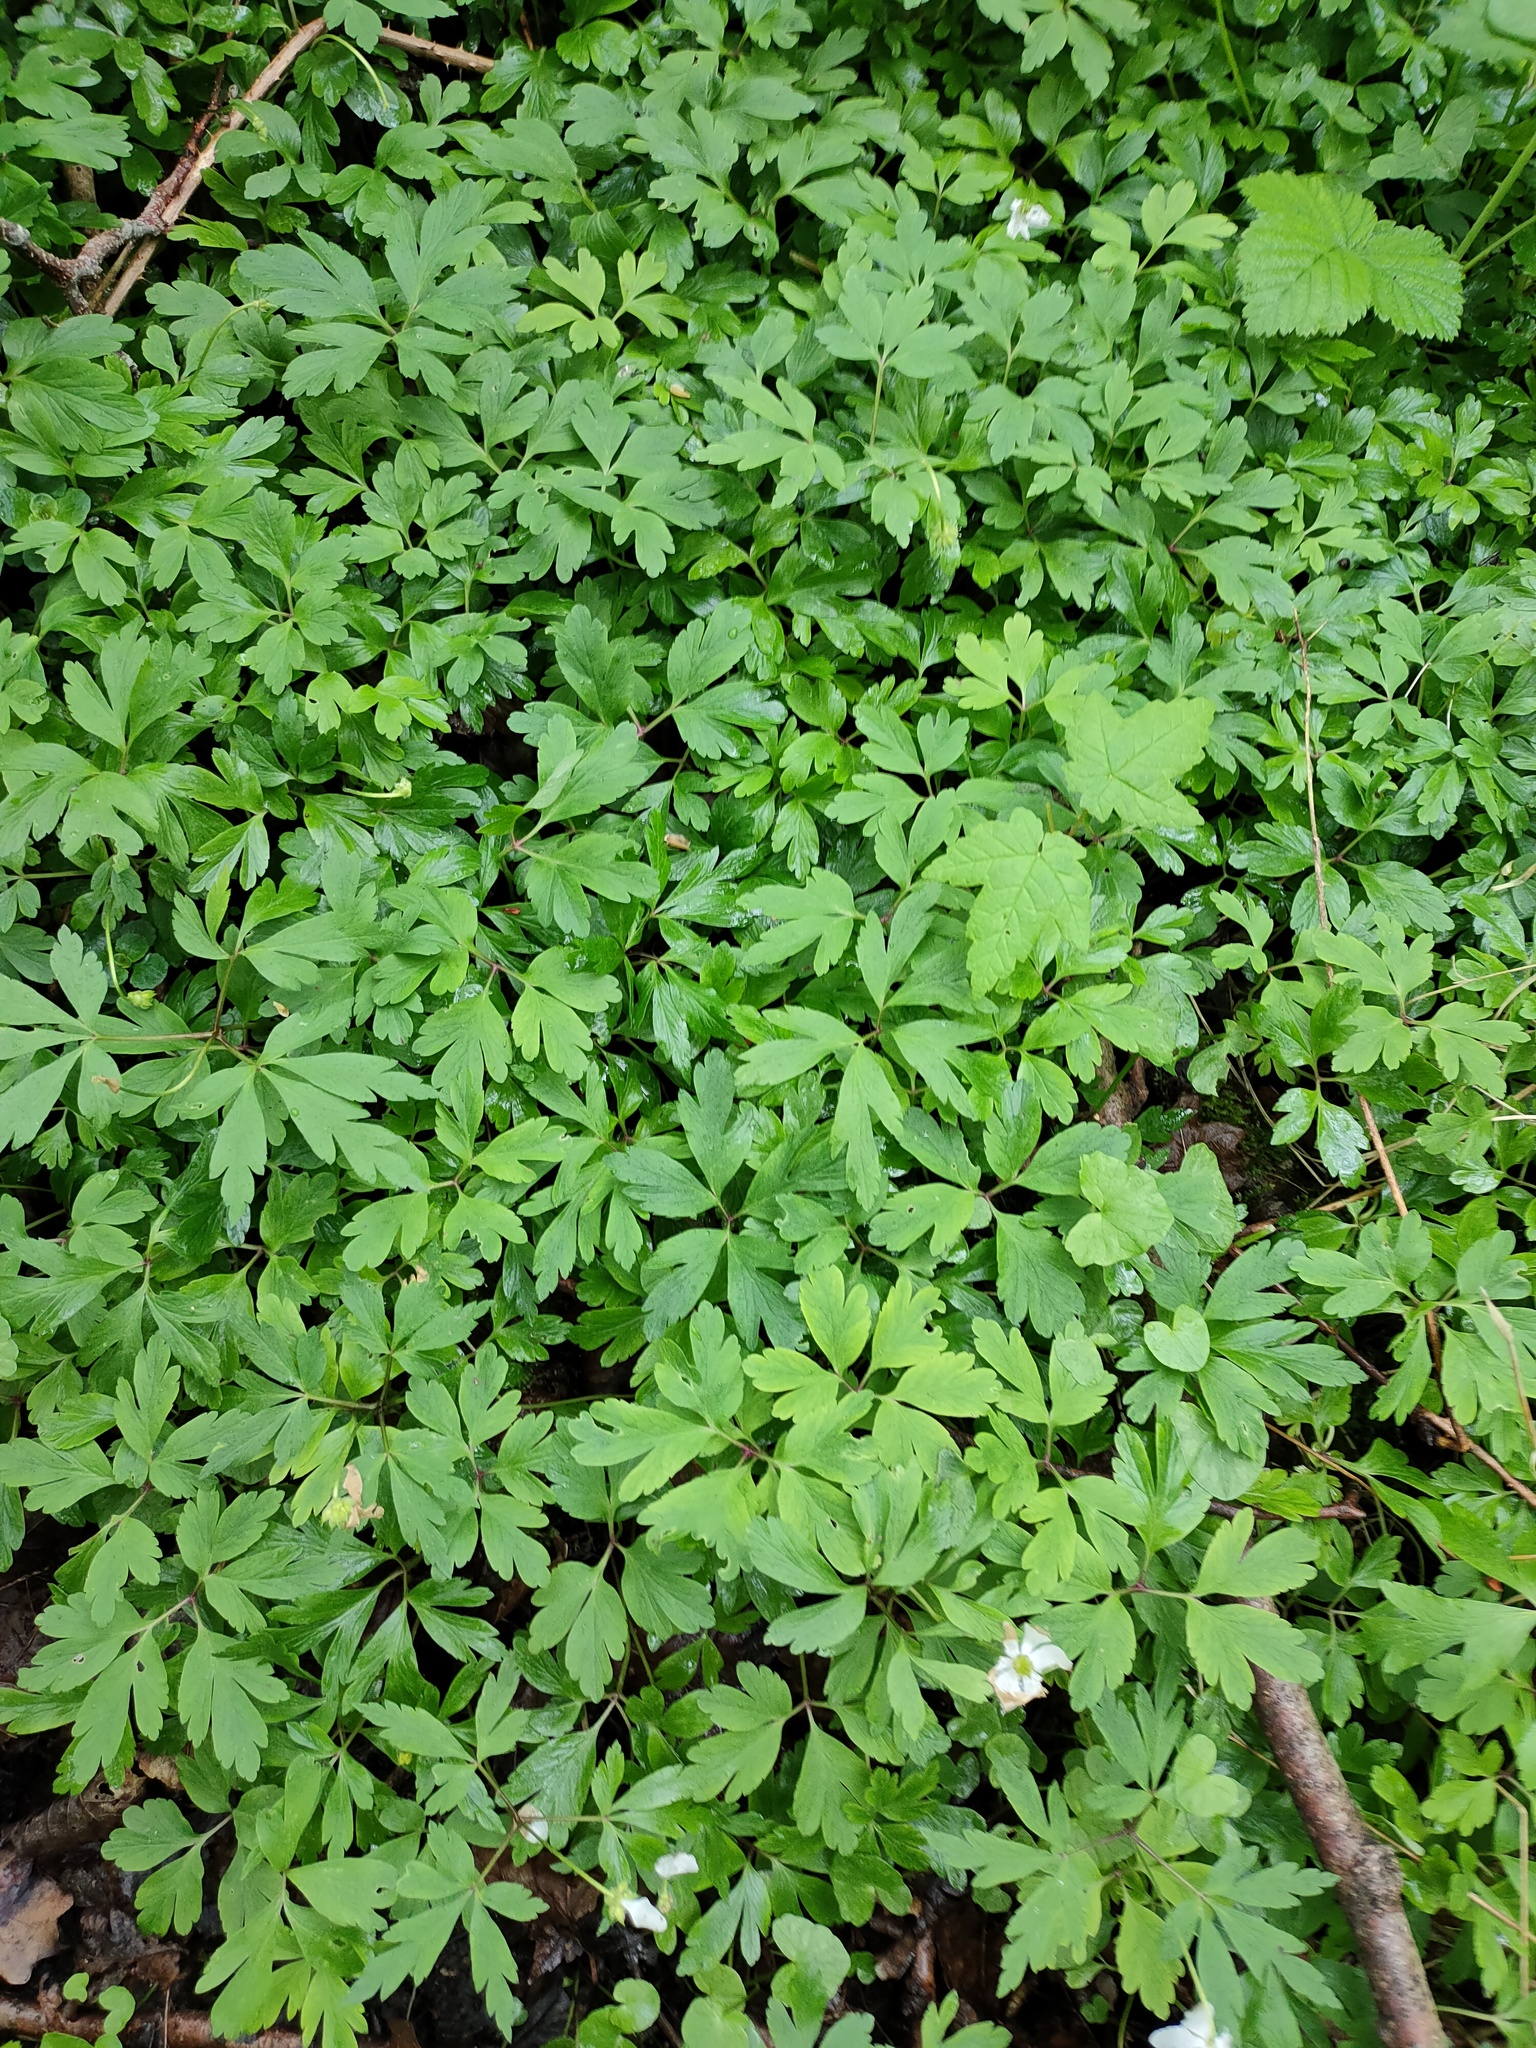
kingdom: Plantae
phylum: Tracheophyta
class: Magnoliopsida
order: Ranunculales
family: Ranunculaceae
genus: Anemone
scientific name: Anemone nemorosa
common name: Wood anemone
